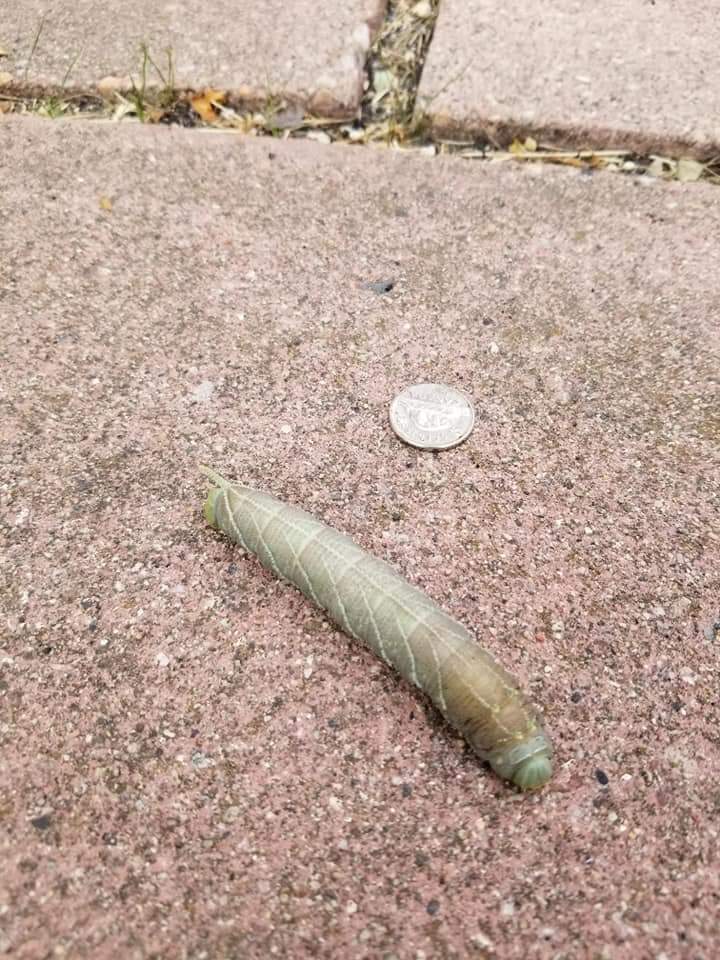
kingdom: Animalia
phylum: Arthropoda
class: Insecta
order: Lepidoptera
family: Sphingidae
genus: Ceratomia
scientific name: Ceratomia amyntor
